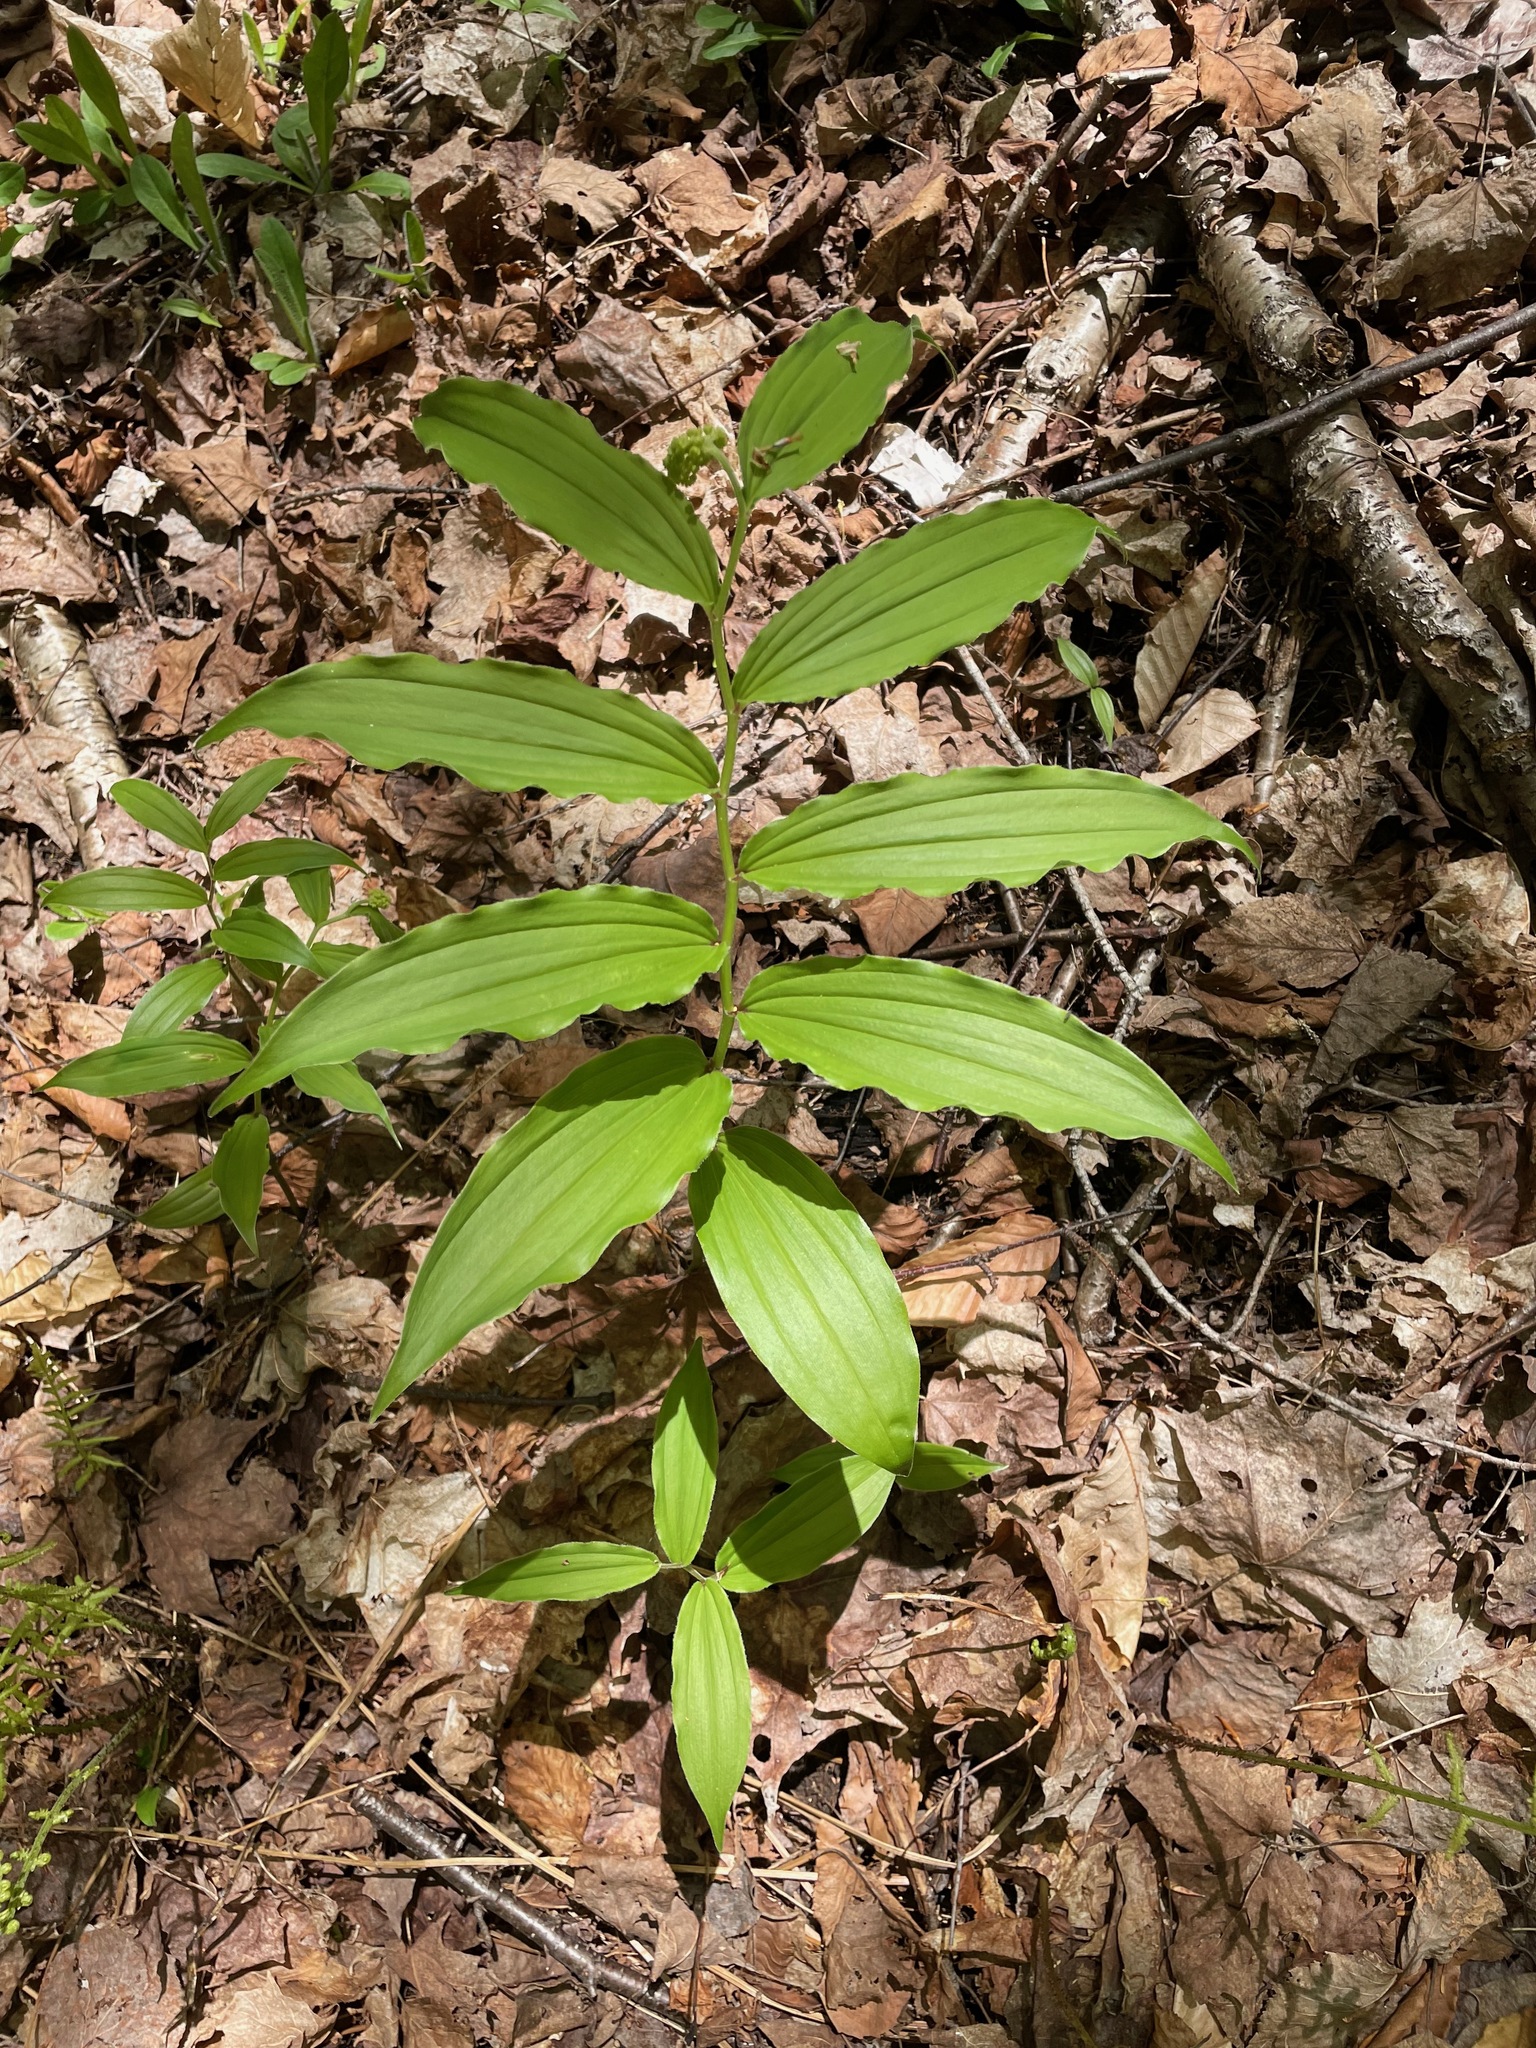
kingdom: Plantae
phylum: Tracheophyta
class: Liliopsida
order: Asparagales
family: Asparagaceae
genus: Maianthemum
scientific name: Maianthemum racemosum
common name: False spikenard
